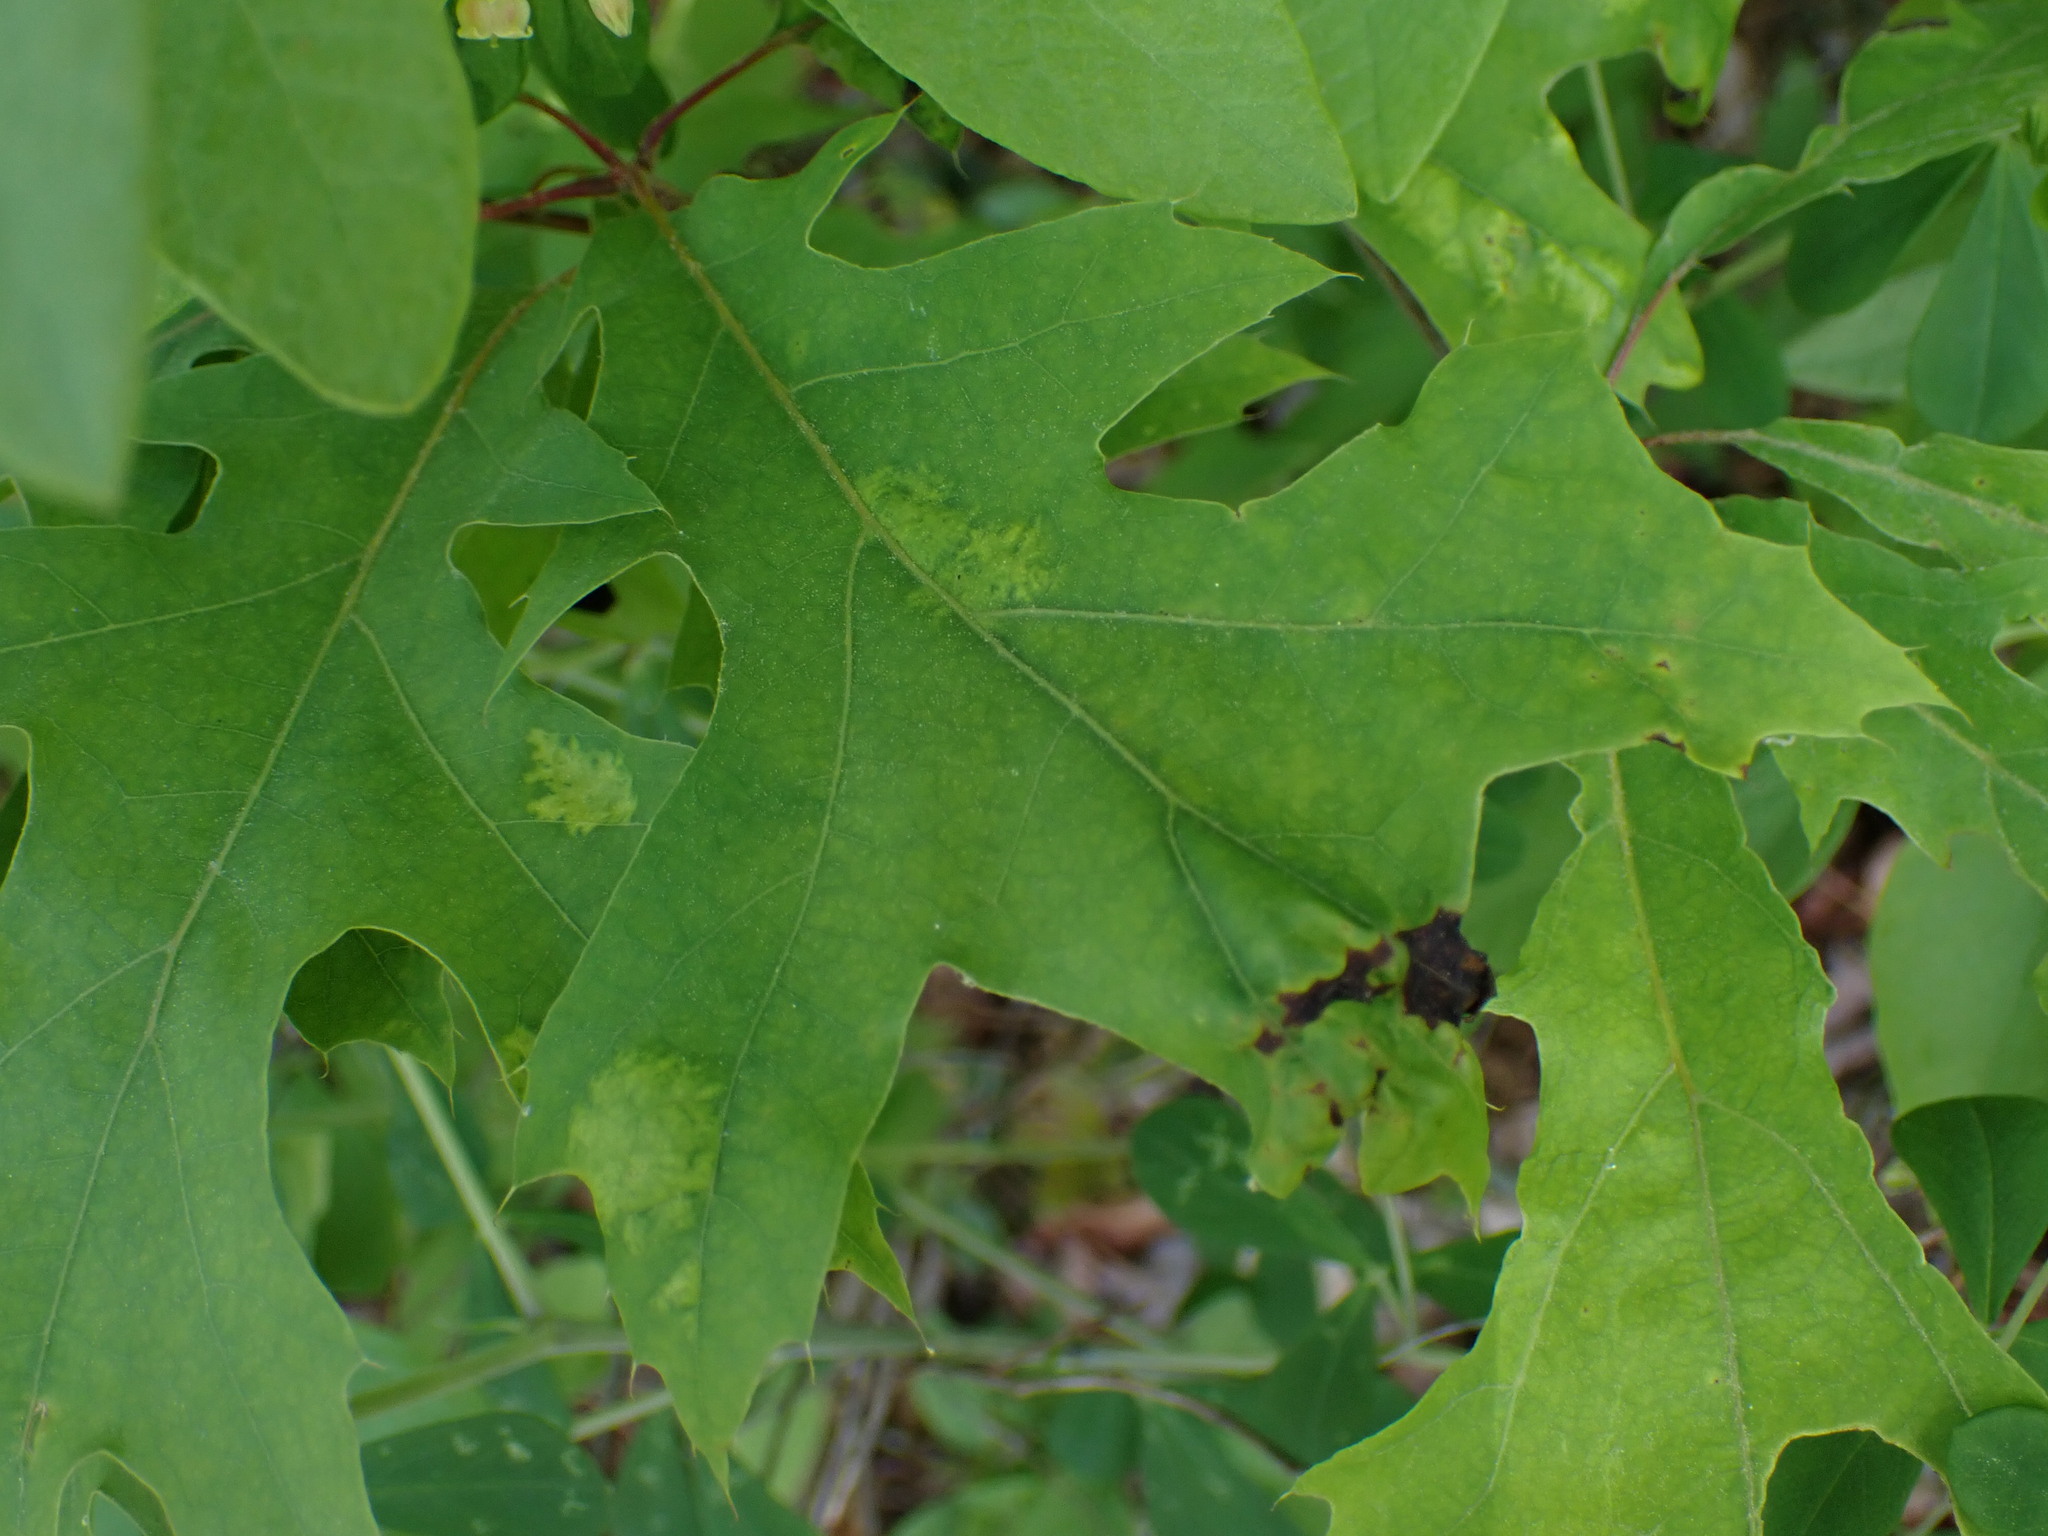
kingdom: Fungi
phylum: Ascomycota
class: Taphrinomycetes
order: Taphrinales
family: Taphrinaceae
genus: Taphrina
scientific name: Taphrina caerulescens
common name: Oak leaf blister
